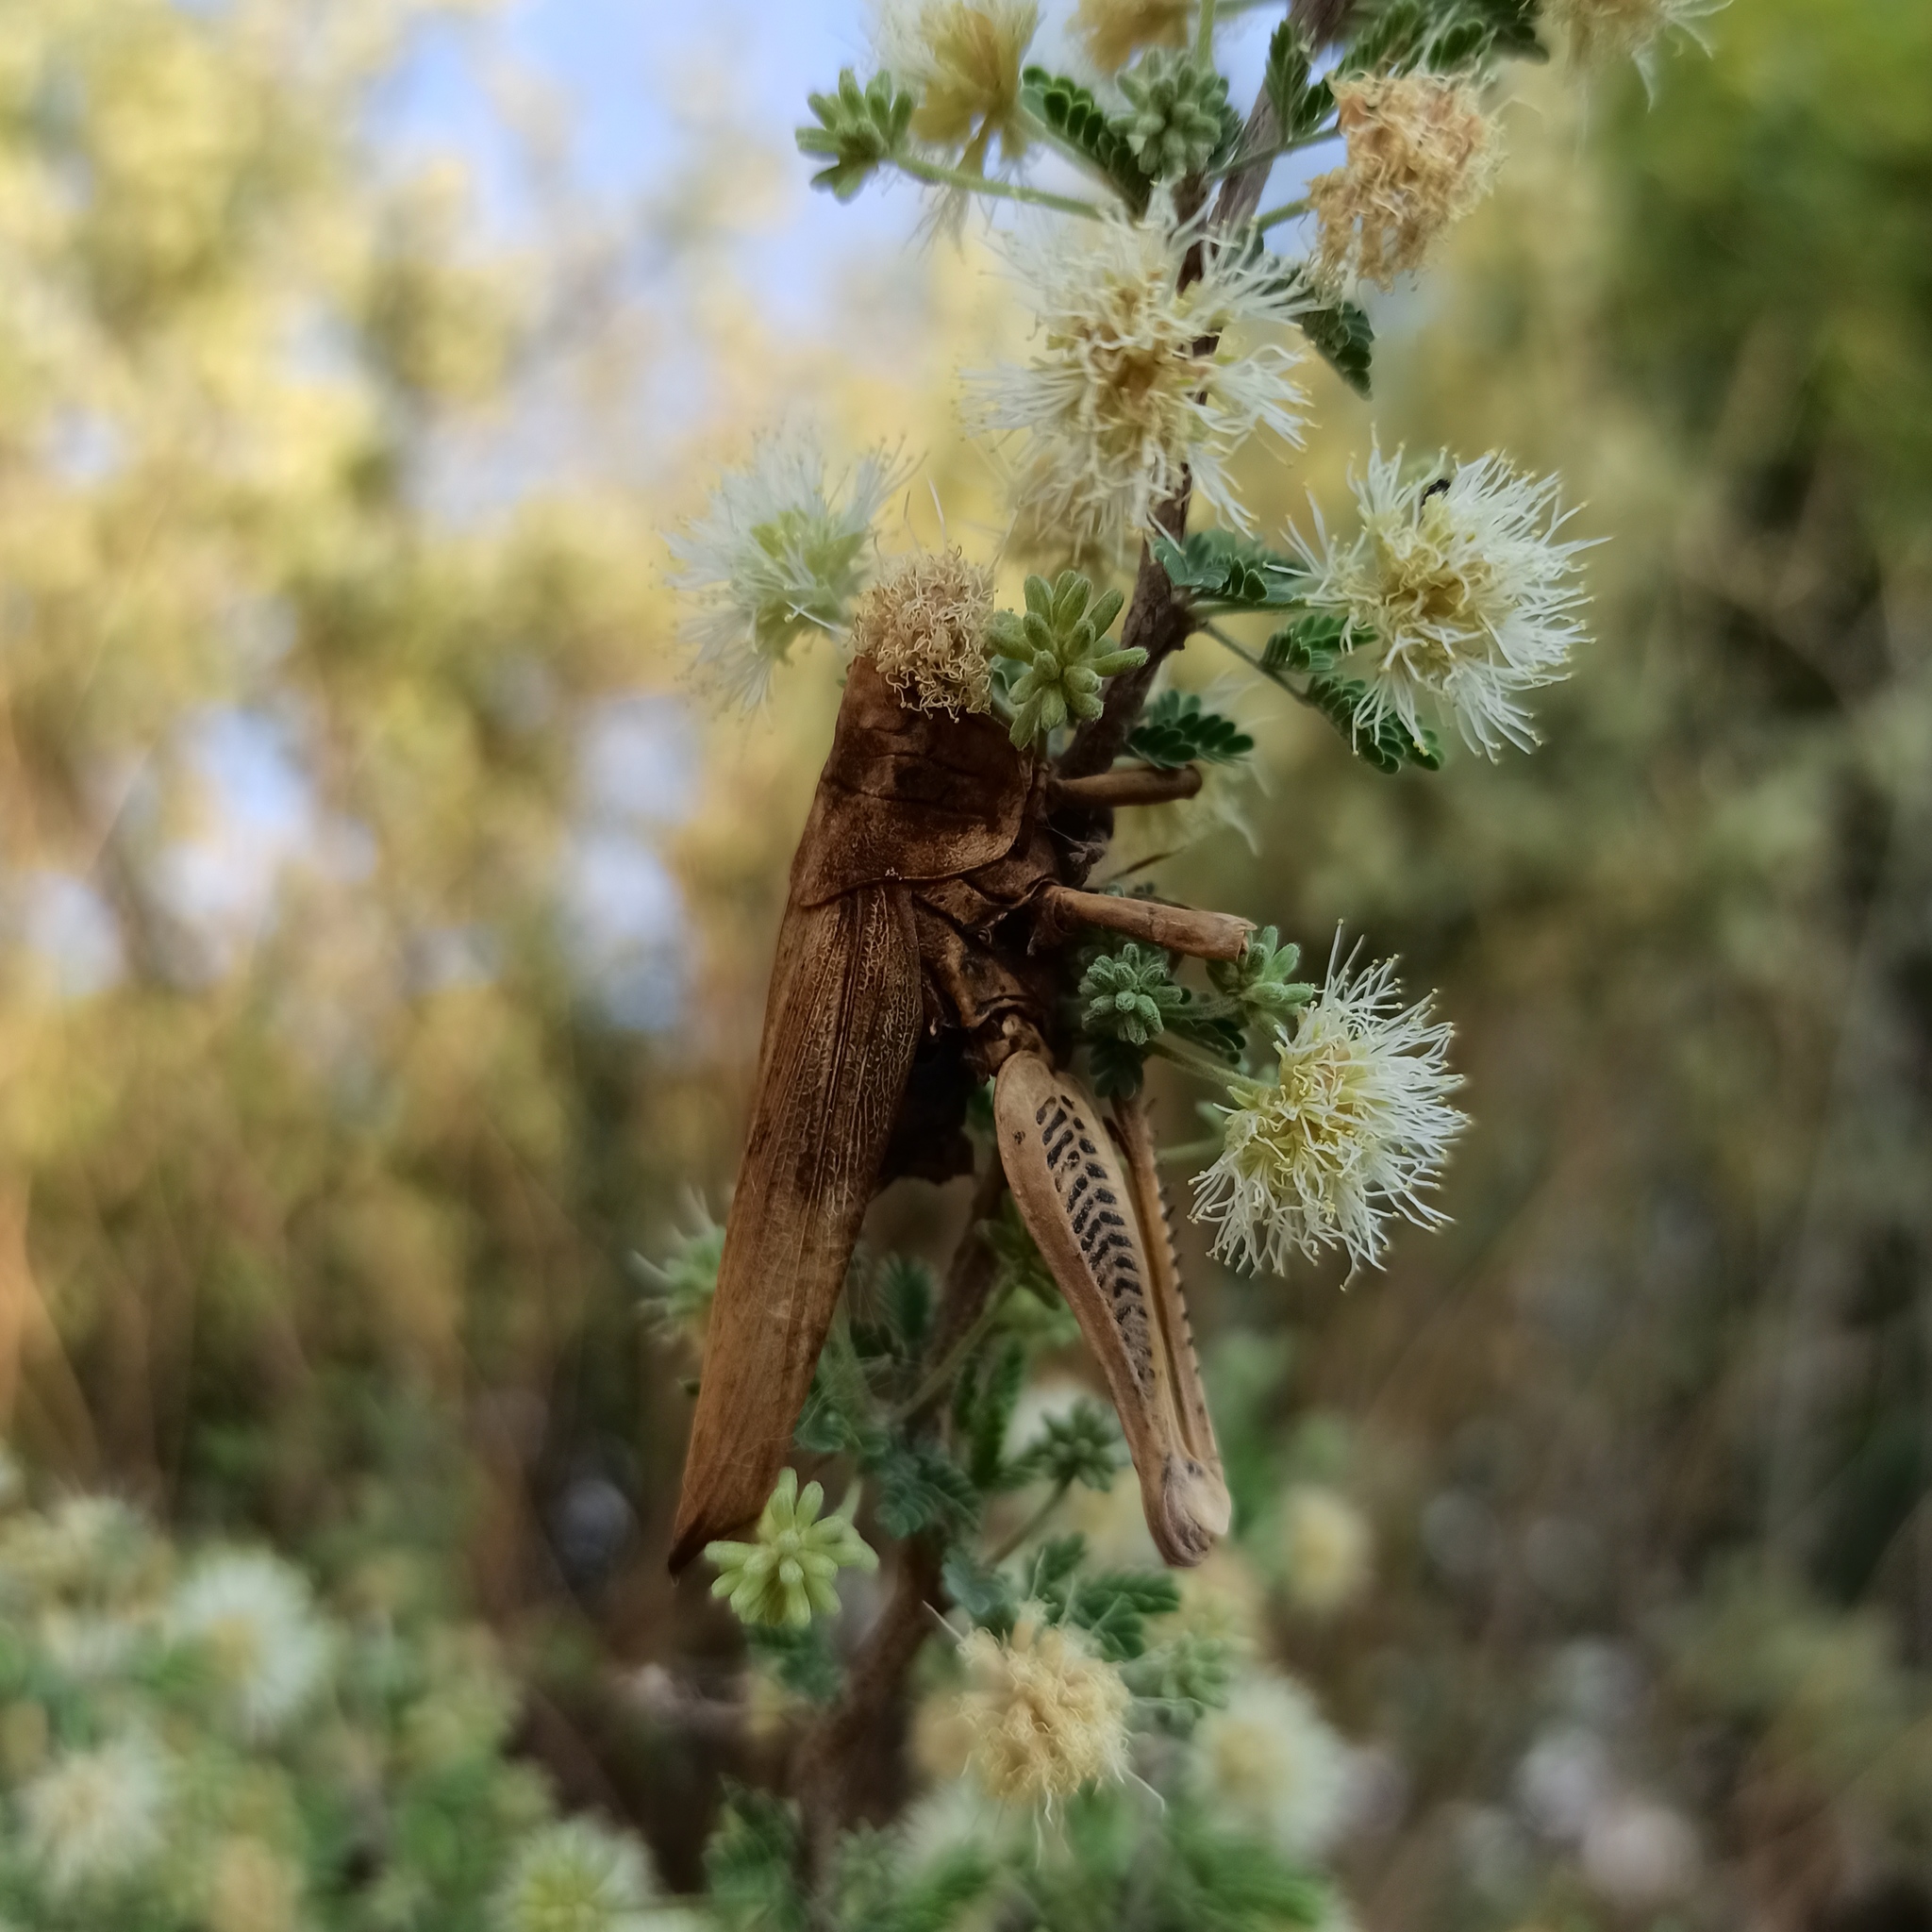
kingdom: Animalia
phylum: Arthropoda
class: Insecta
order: Orthoptera
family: Acrididae
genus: Melanoplus
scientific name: Melanoplus differentialis
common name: Differential grasshopper
